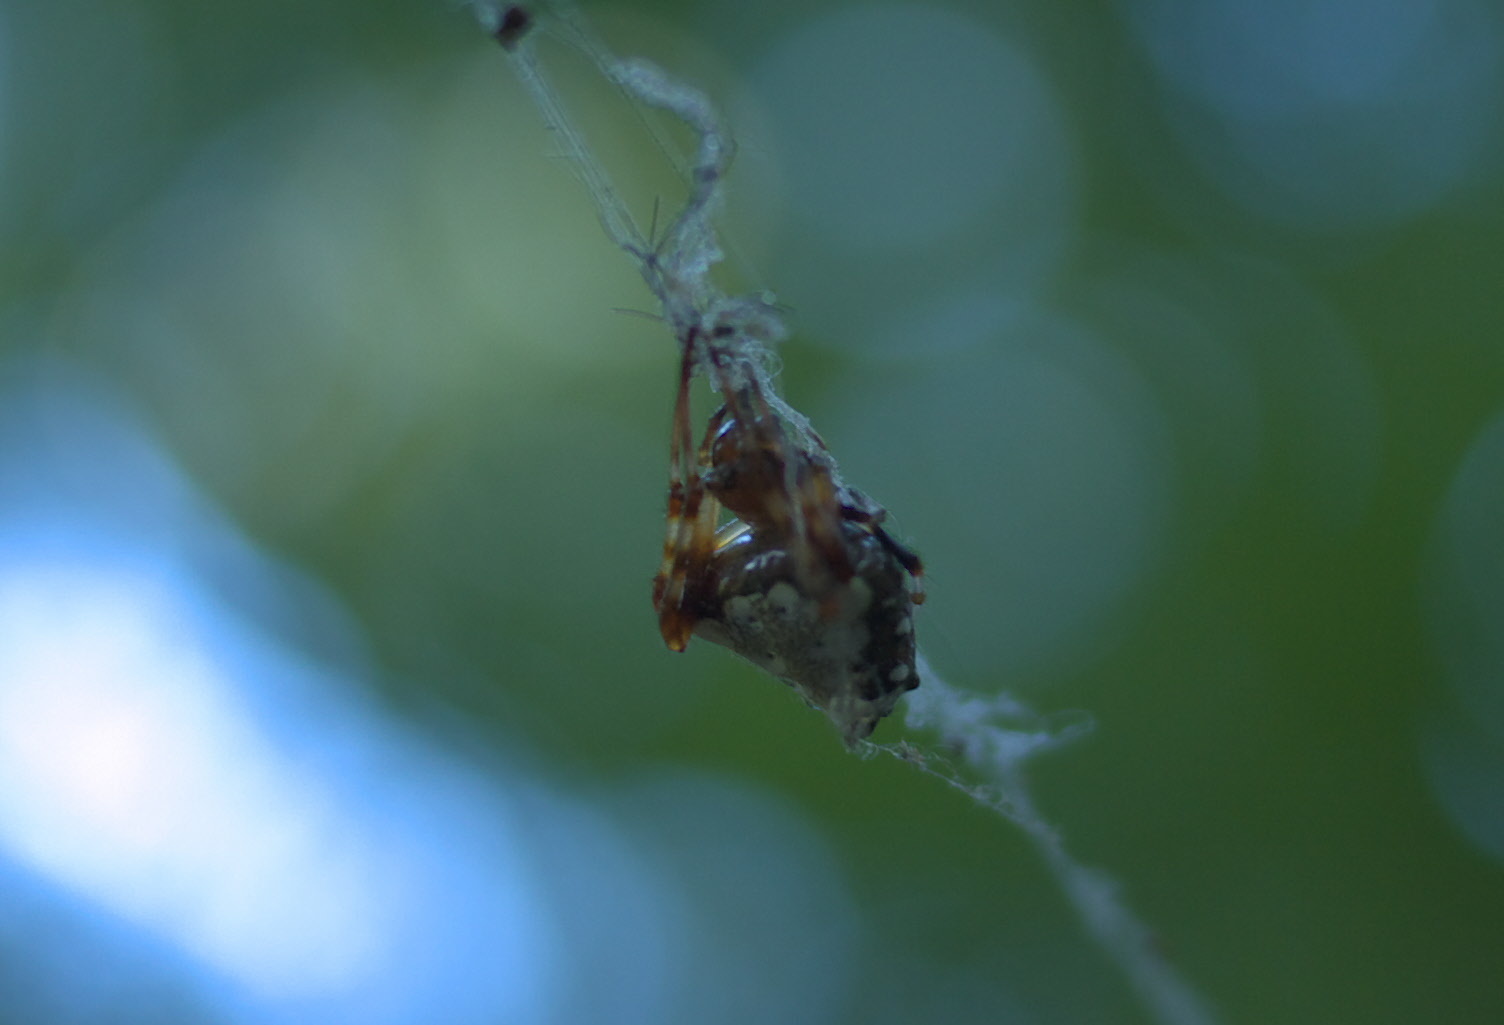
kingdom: Animalia
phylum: Arthropoda
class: Arachnida
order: Araneae
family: Araneidae
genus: Verrucosa
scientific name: Verrucosa arenata
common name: Orb weavers
